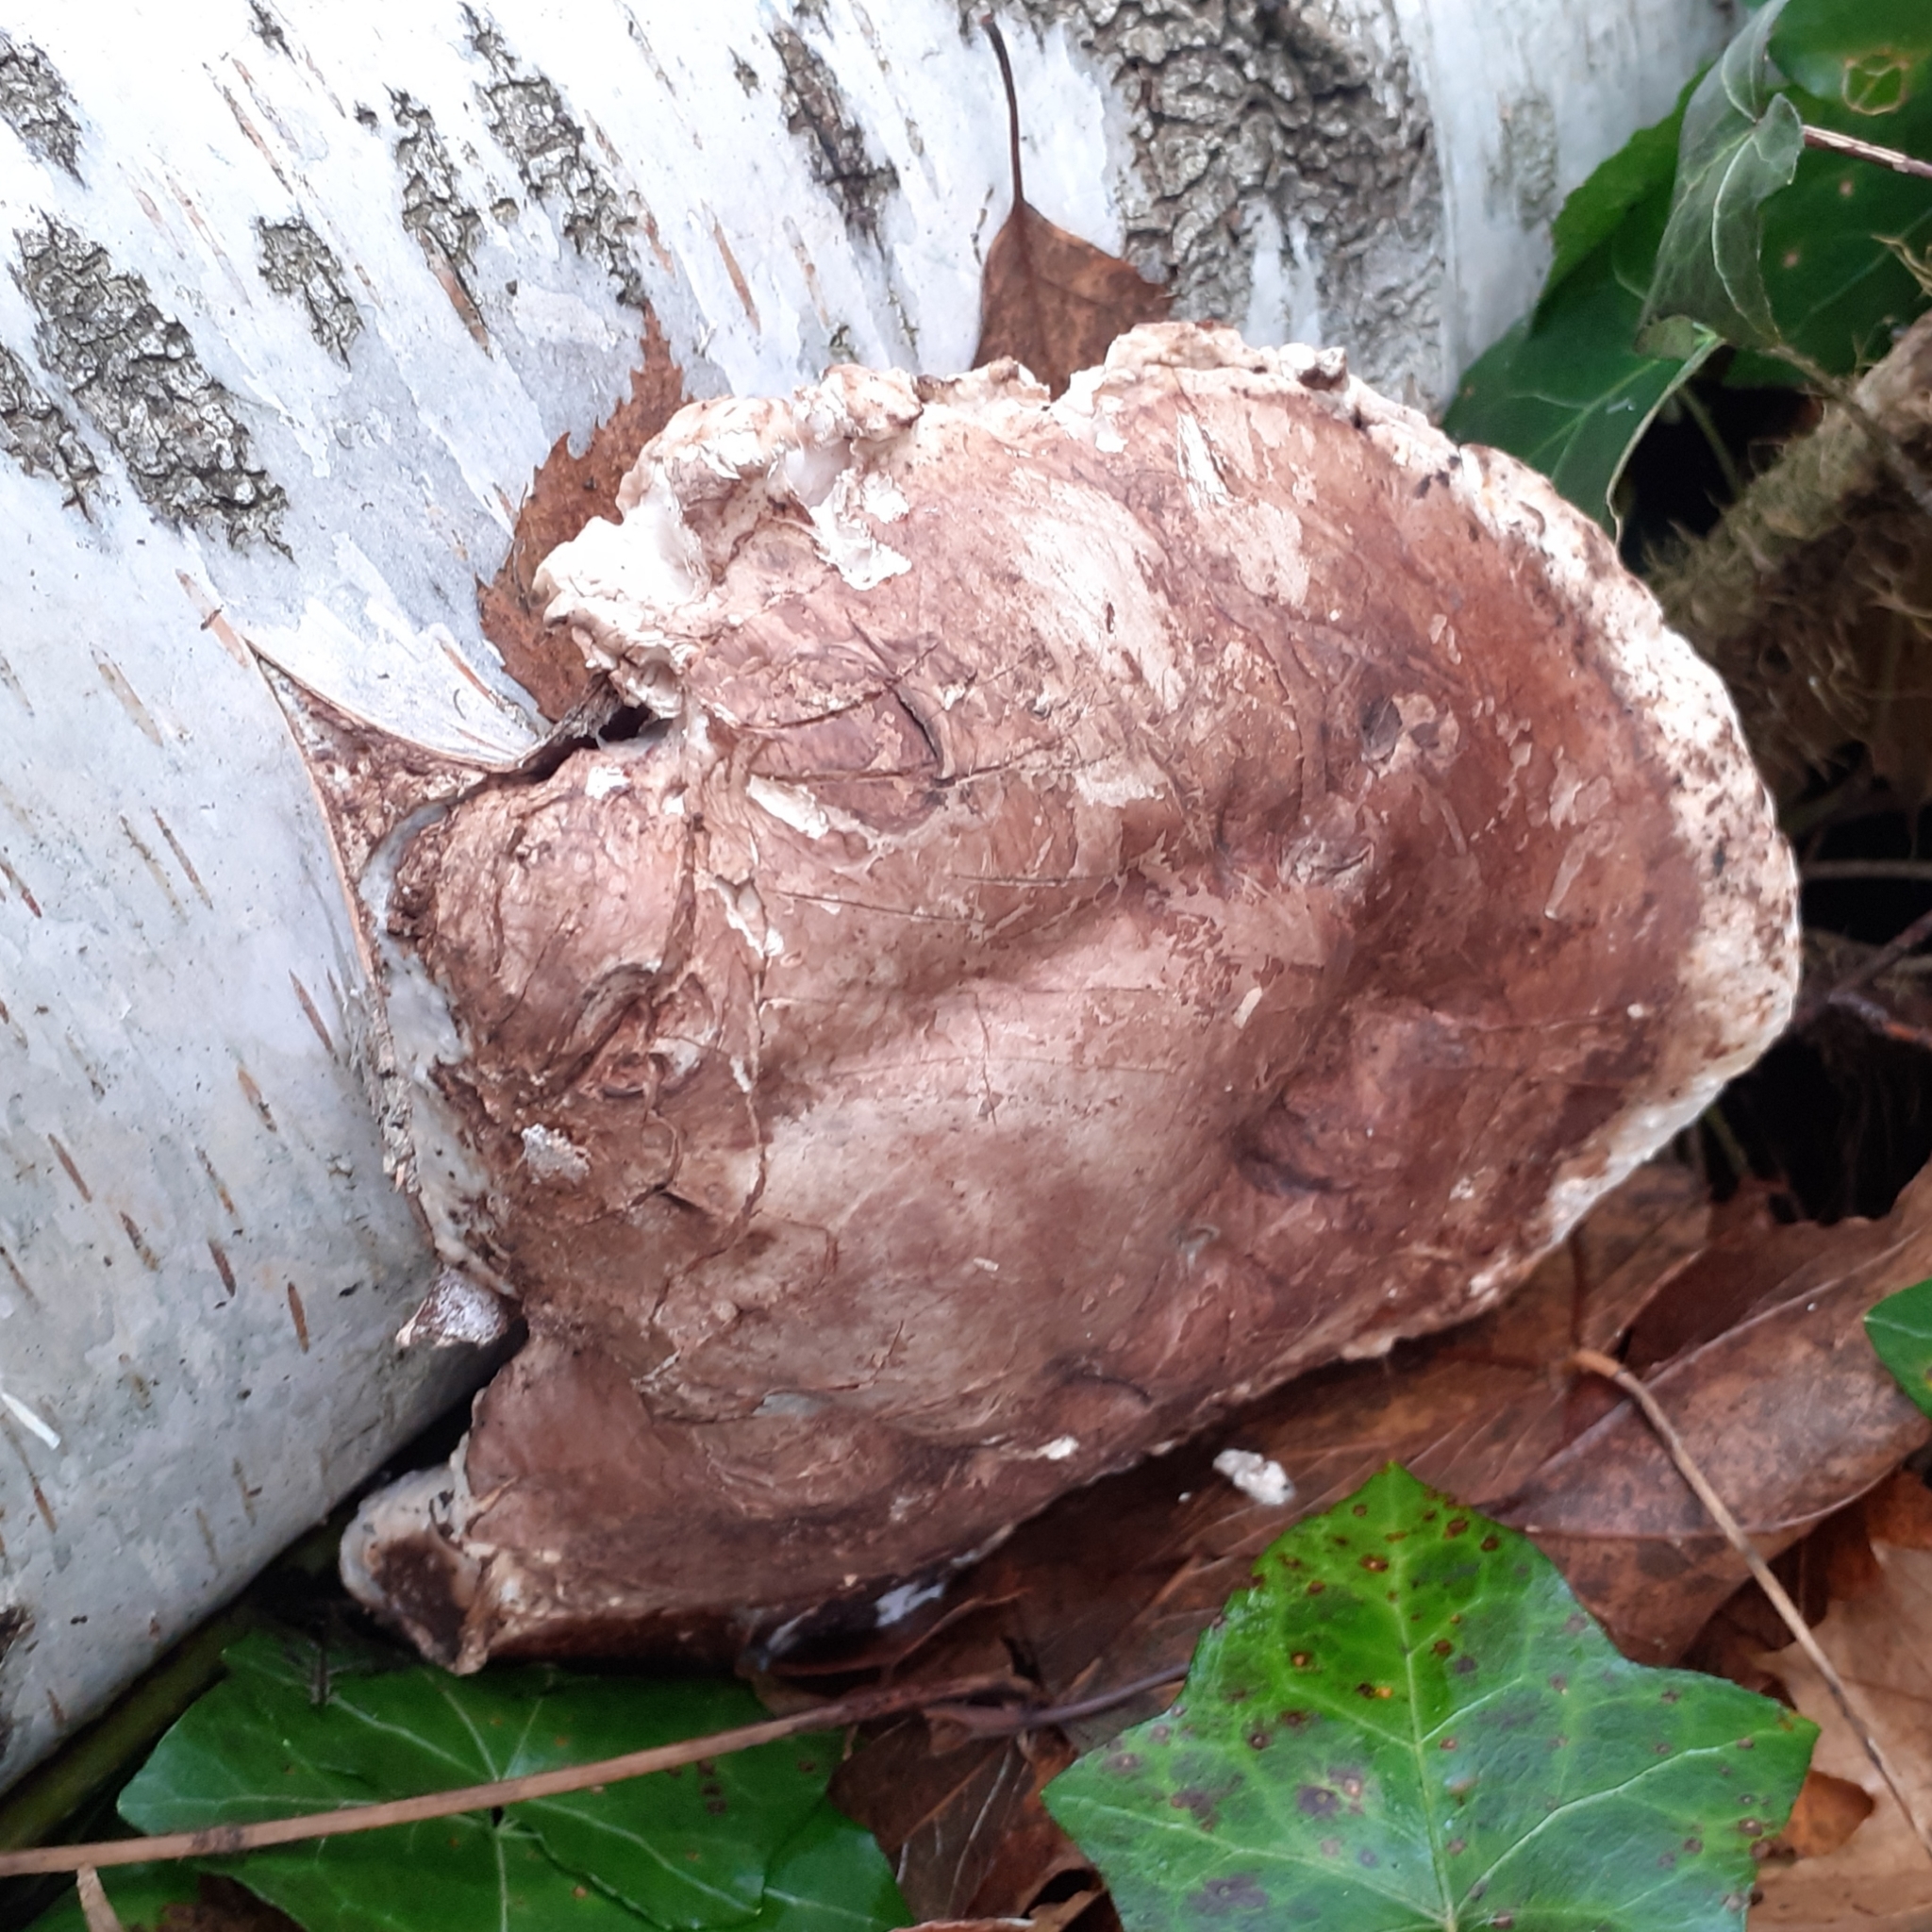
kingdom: Fungi
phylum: Basidiomycota
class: Agaricomycetes
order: Polyporales
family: Fomitopsidaceae
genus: Fomitopsis
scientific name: Fomitopsis betulina
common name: Birch polypore
